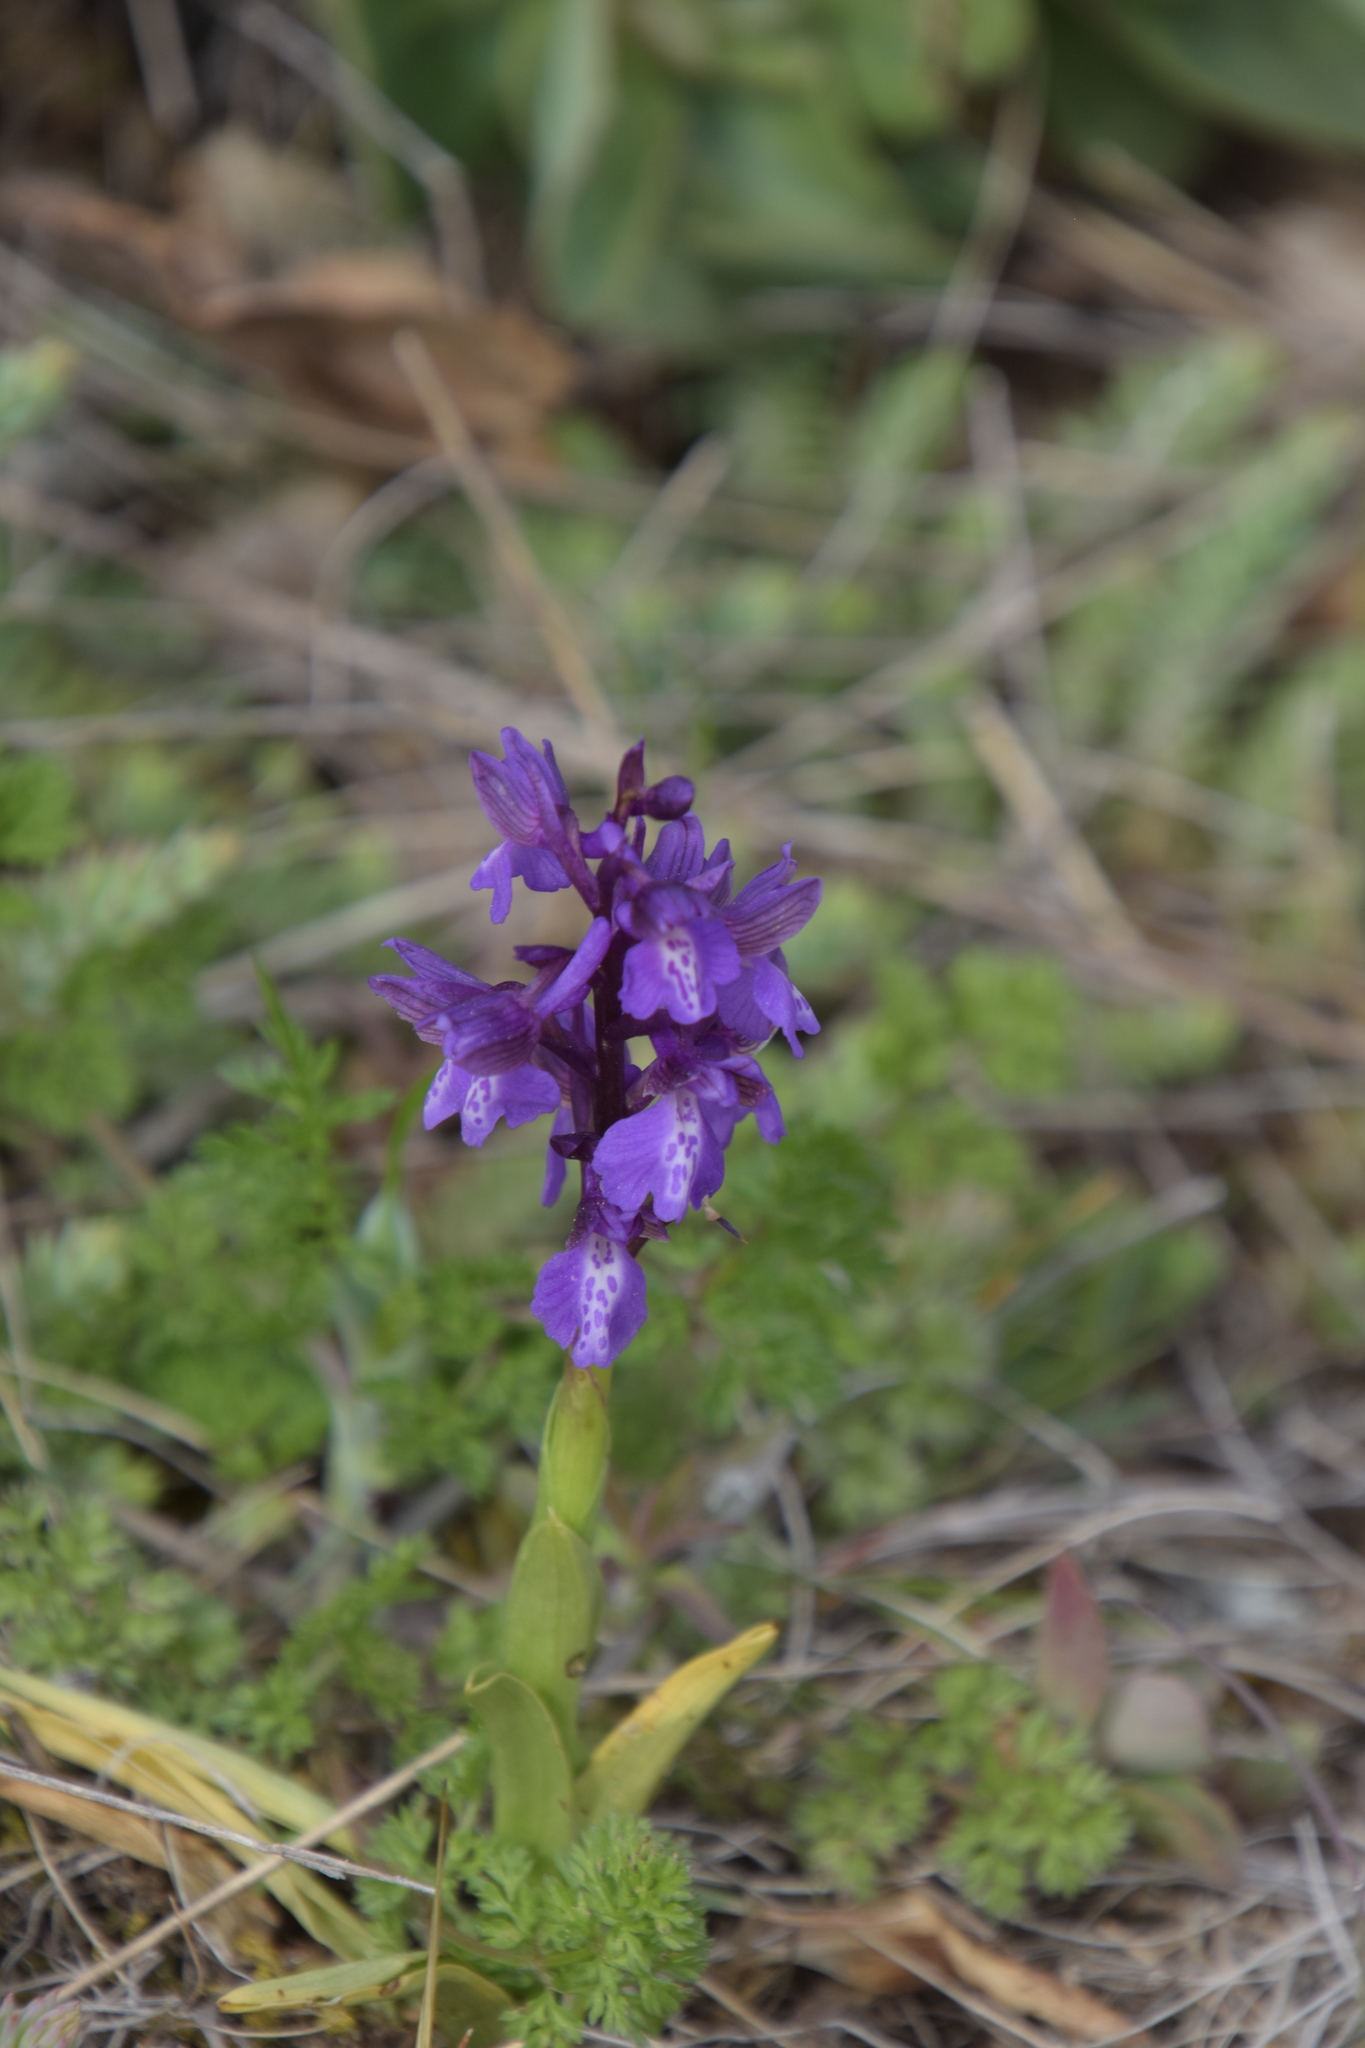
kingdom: Plantae
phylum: Tracheophyta
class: Liliopsida
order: Asparagales
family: Orchidaceae
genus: Anacamptis
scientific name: Anacamptis morio
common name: Green-winged orchid
